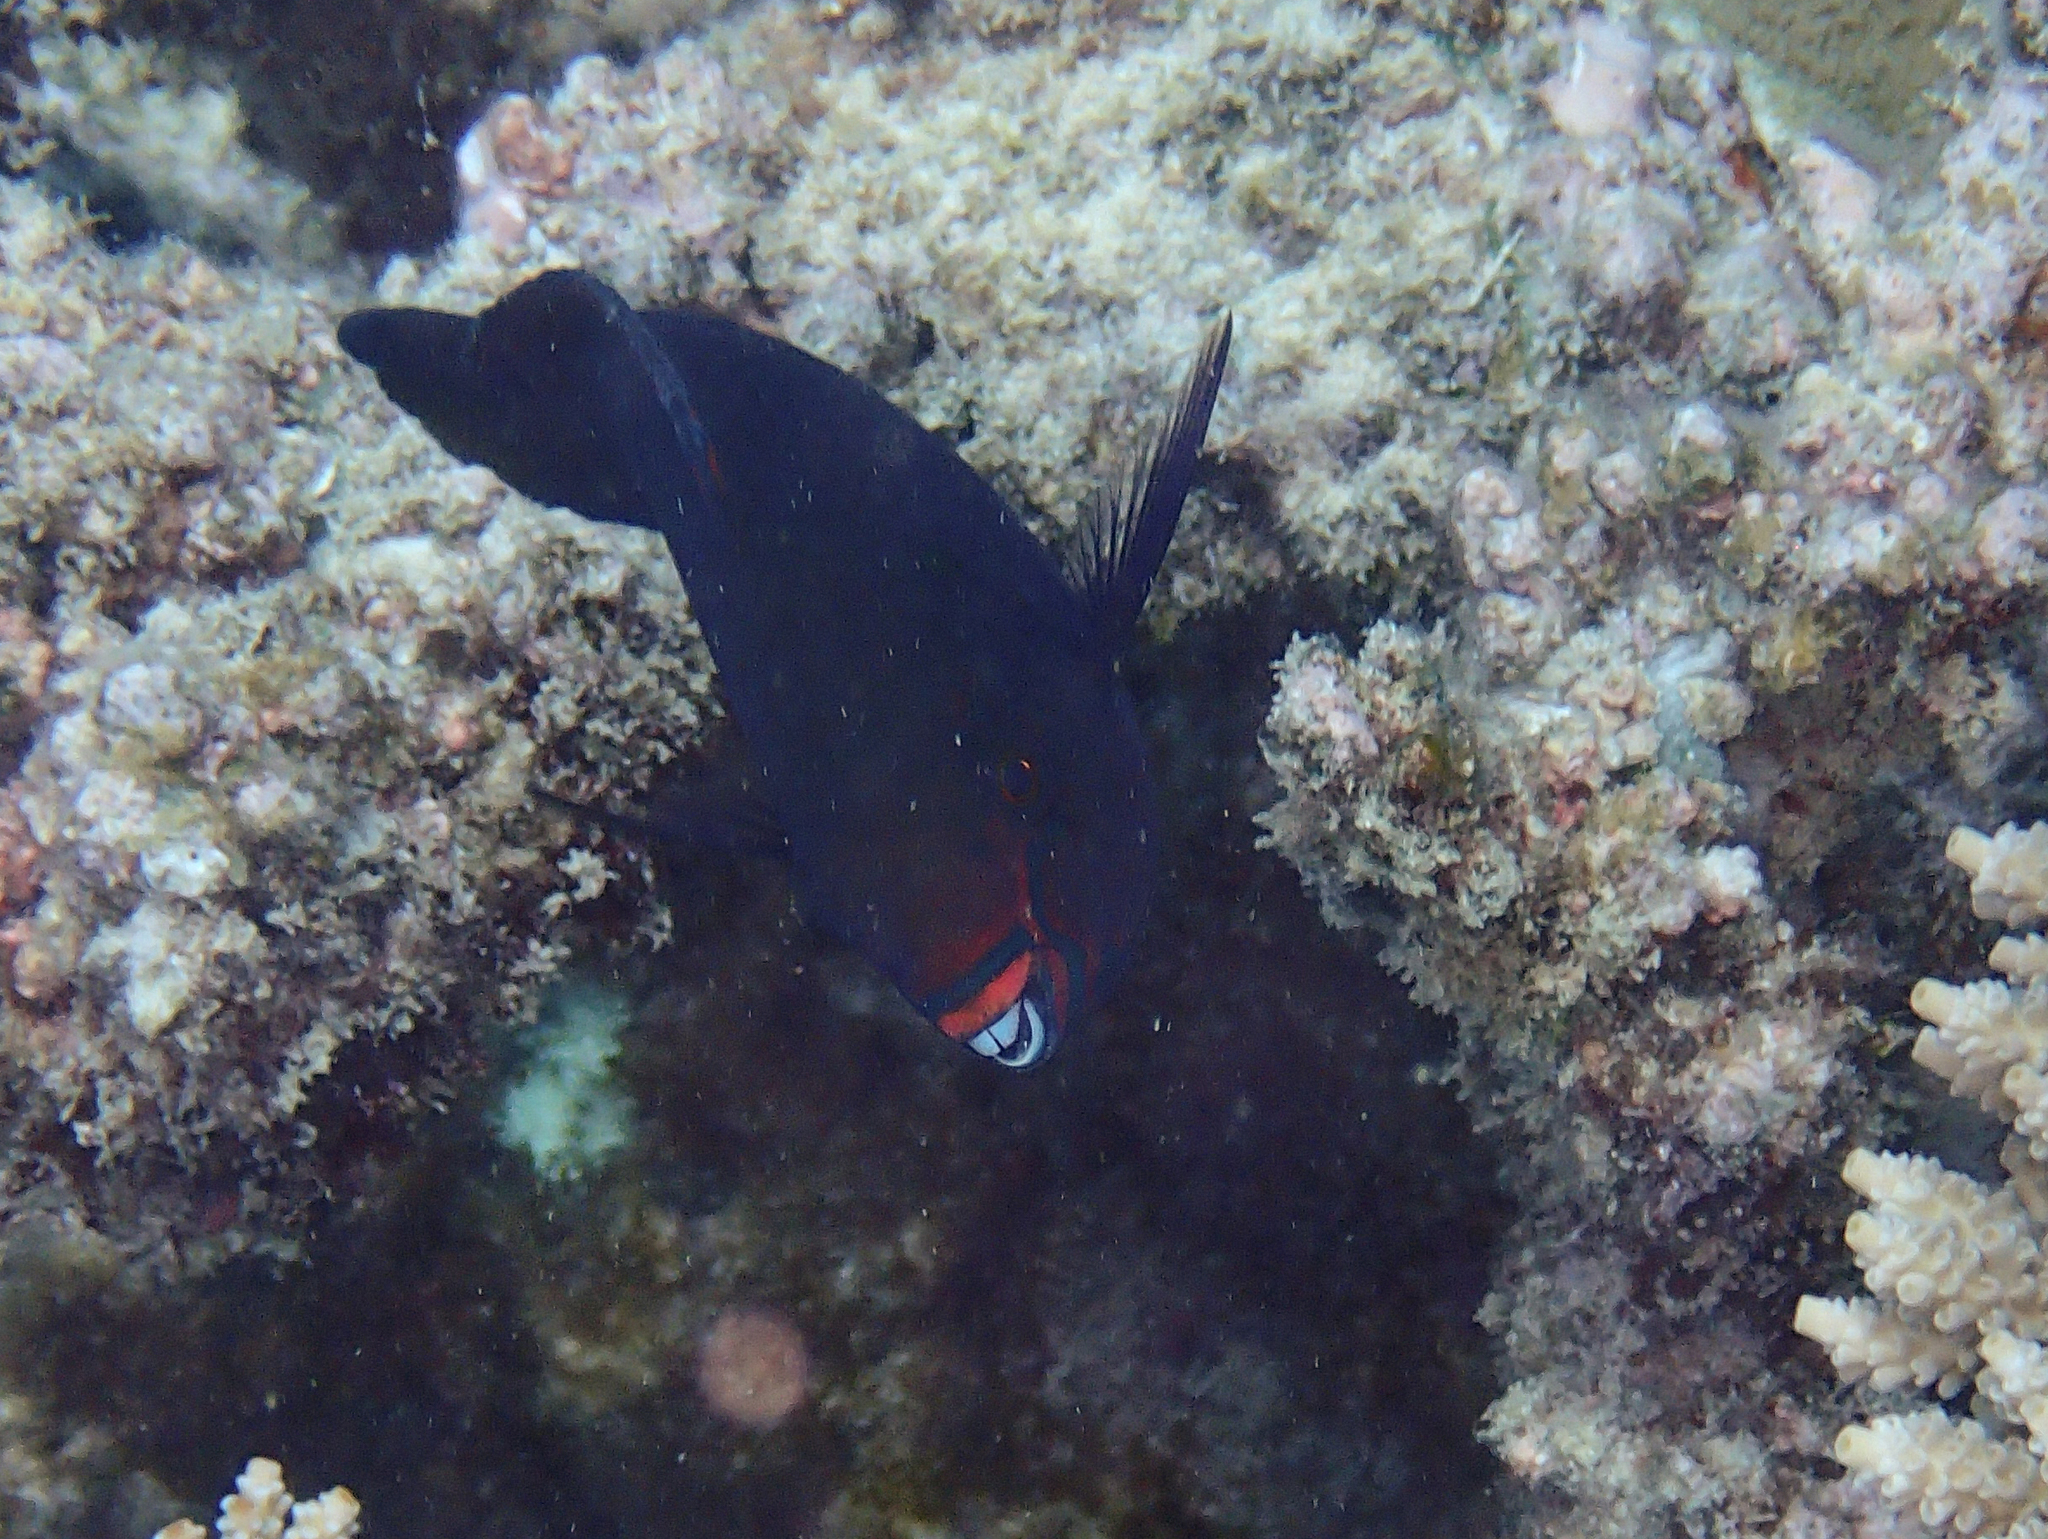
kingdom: Animalia
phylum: Chordata
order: Perciformes
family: Scaridae
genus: Scarus
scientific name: Scarus niger
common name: Dusky parrotfish
